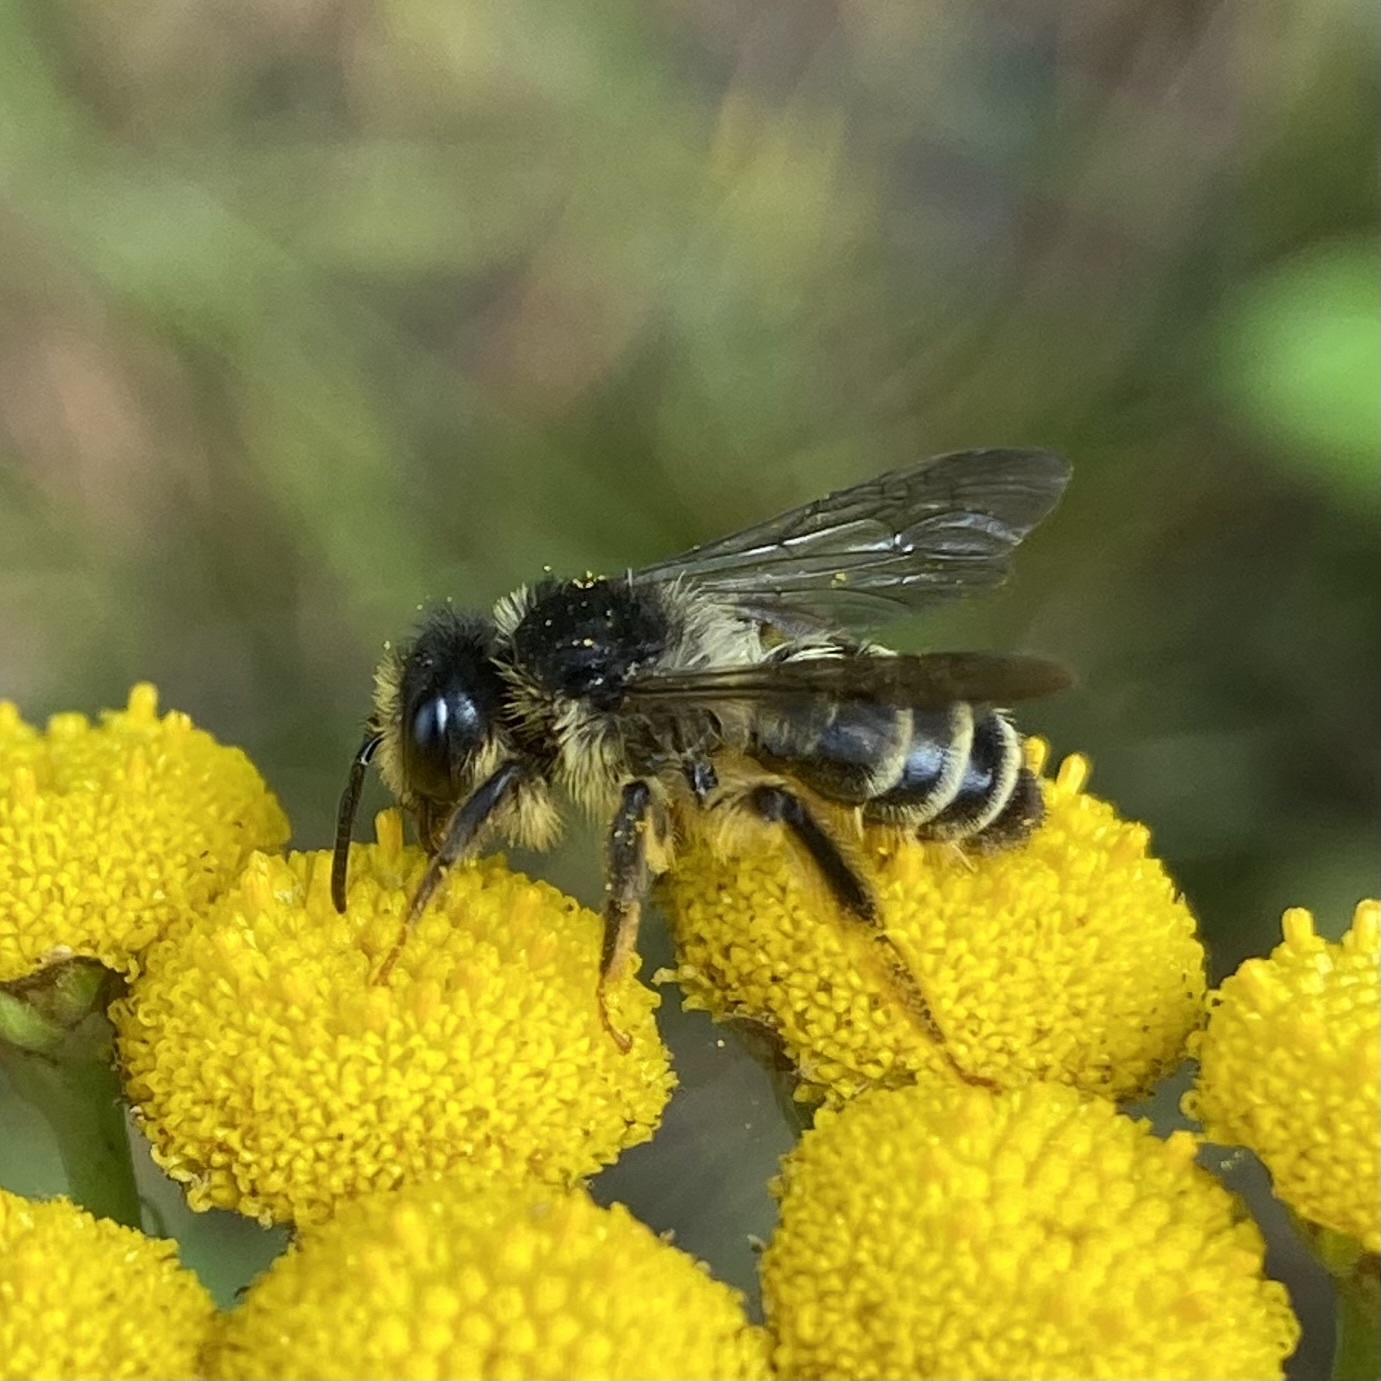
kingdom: Animalia
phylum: Arthropoda
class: Insecta
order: Hymenoptera
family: Andrenidae
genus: Andrena
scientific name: Andrena denticulata
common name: Grey-banded mining bee
